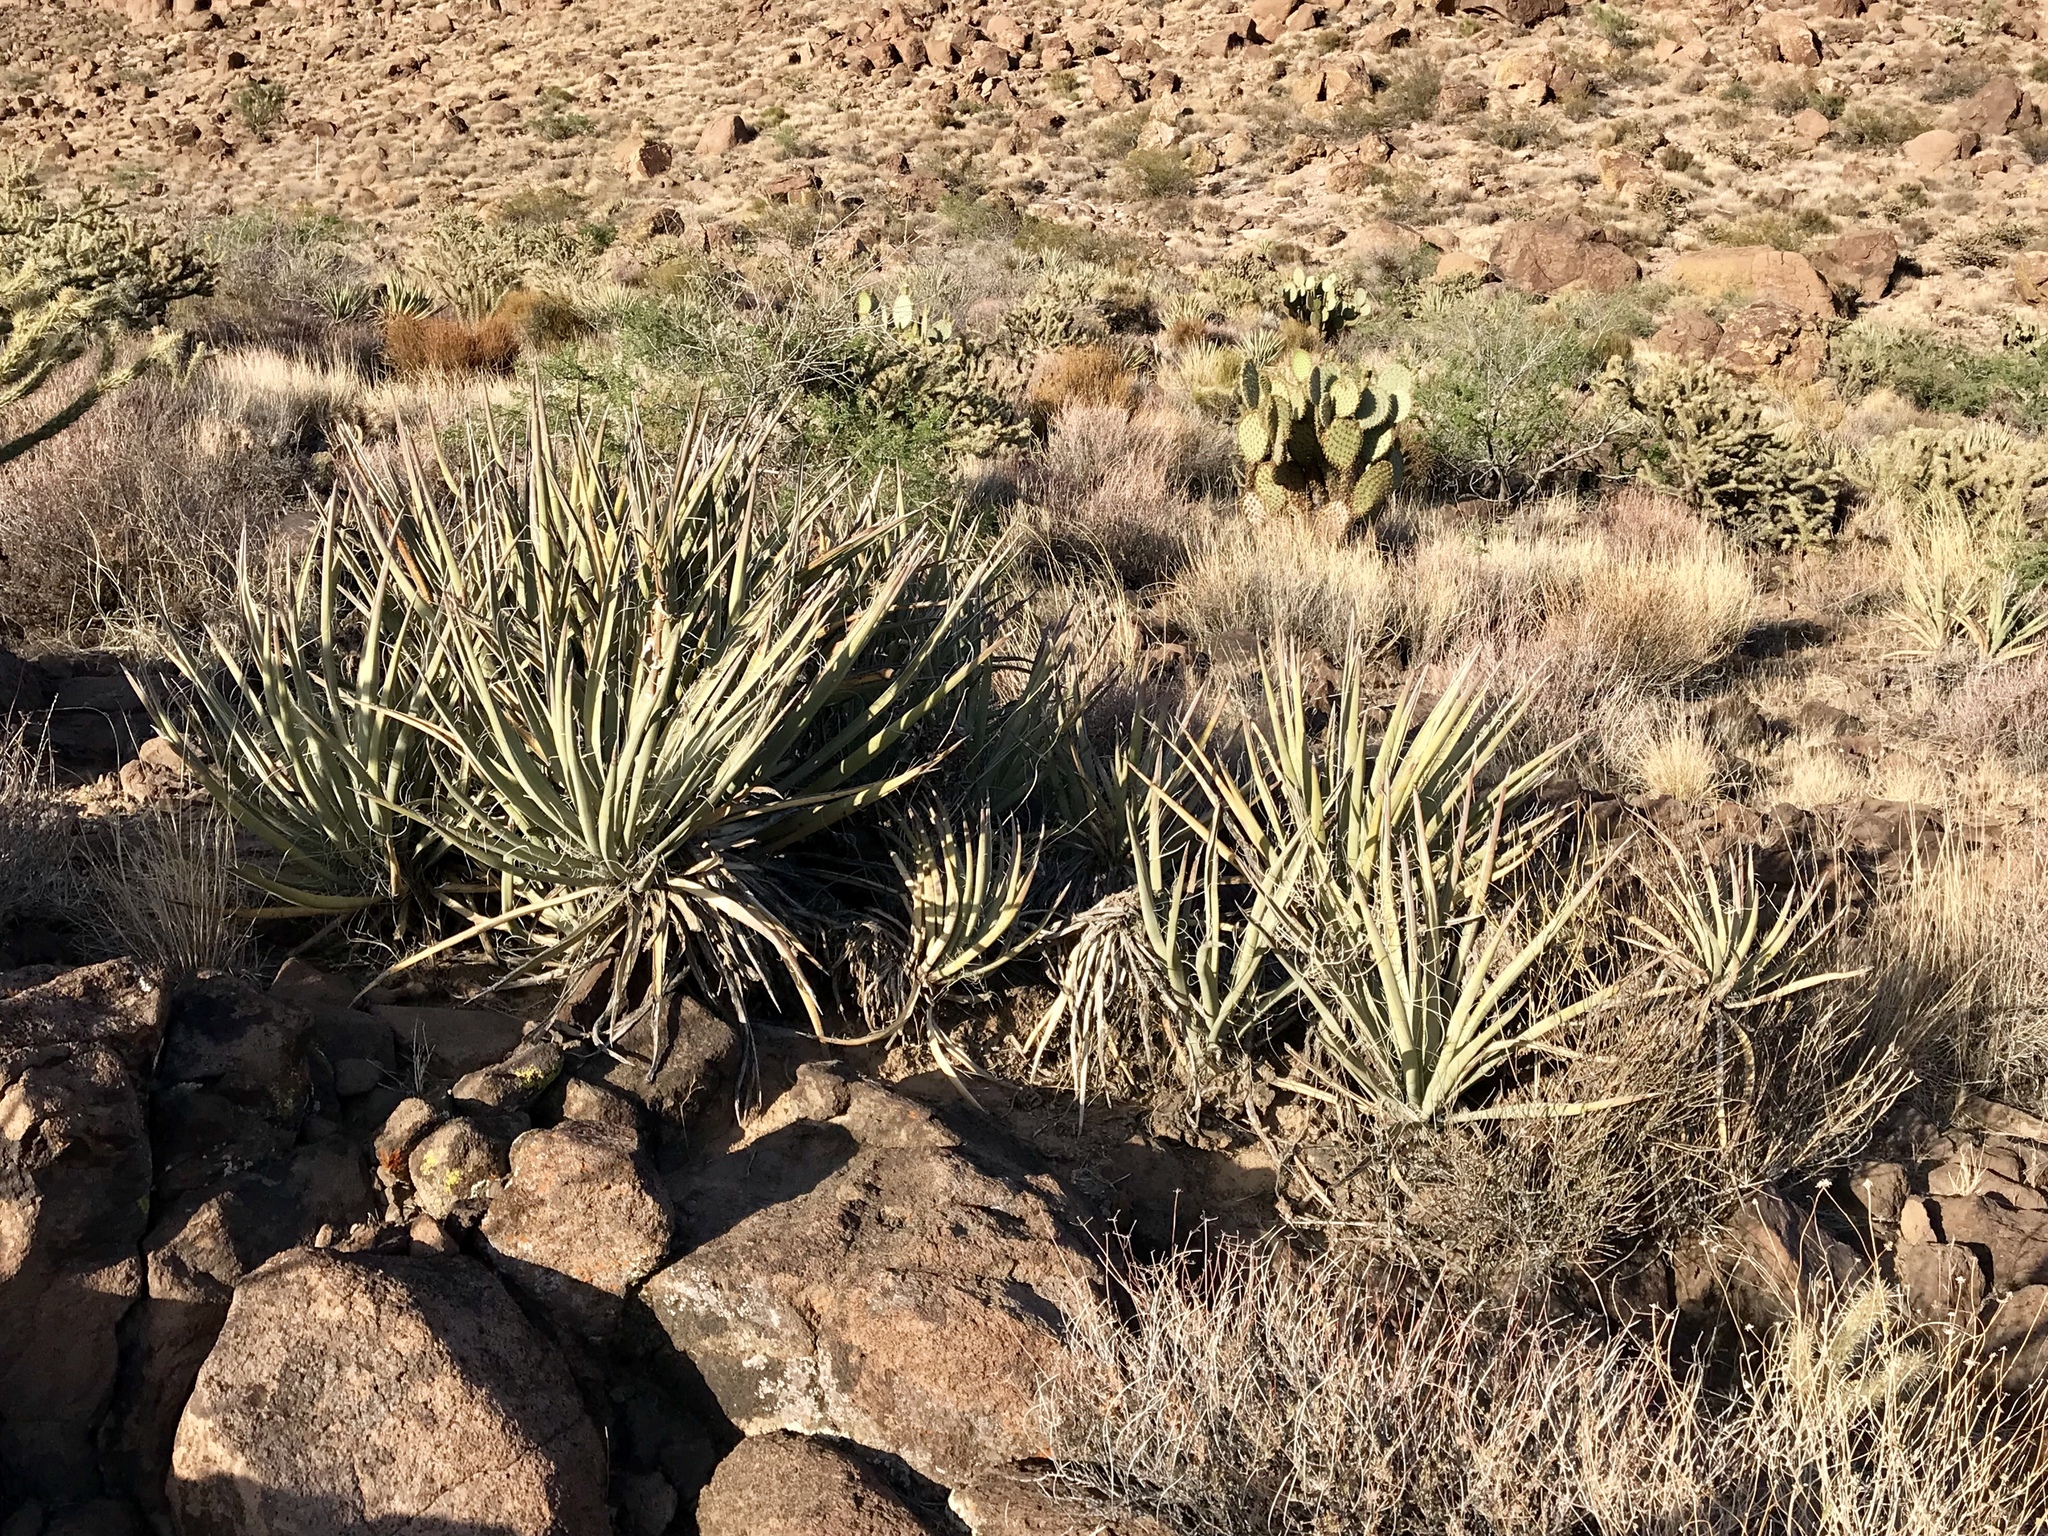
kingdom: Plantae
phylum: Tracheophyta
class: Liliopsida
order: Asparagales
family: Asparagaceae
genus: Yucca
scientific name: Yucca baccata
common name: Banana yucca
